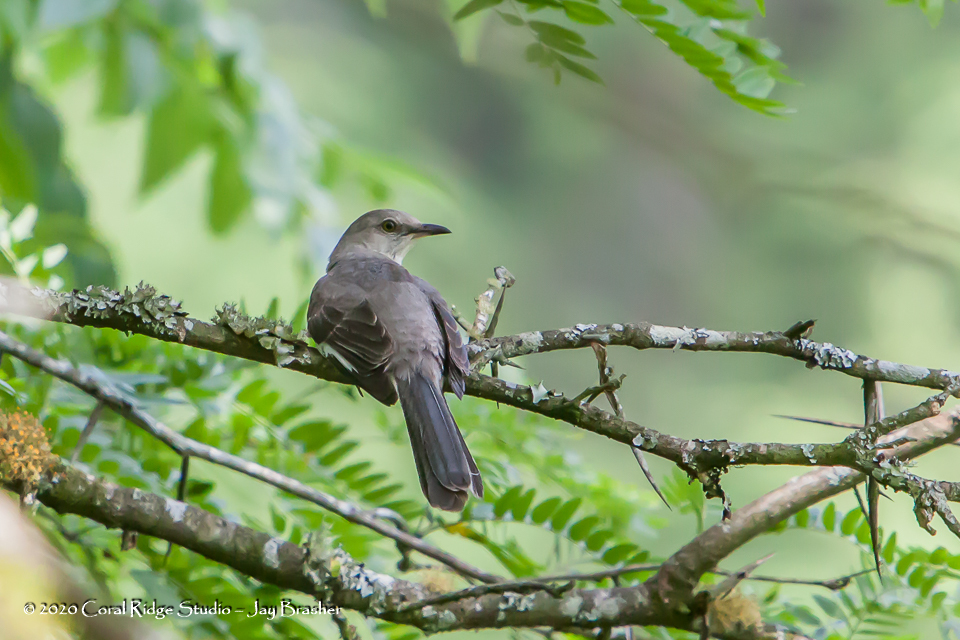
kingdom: Animalia
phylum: Chordata
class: Aves
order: Passeriformes
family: Mimidae
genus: Mimus
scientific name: Mimus polyglottos
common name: Northern mockingbird
